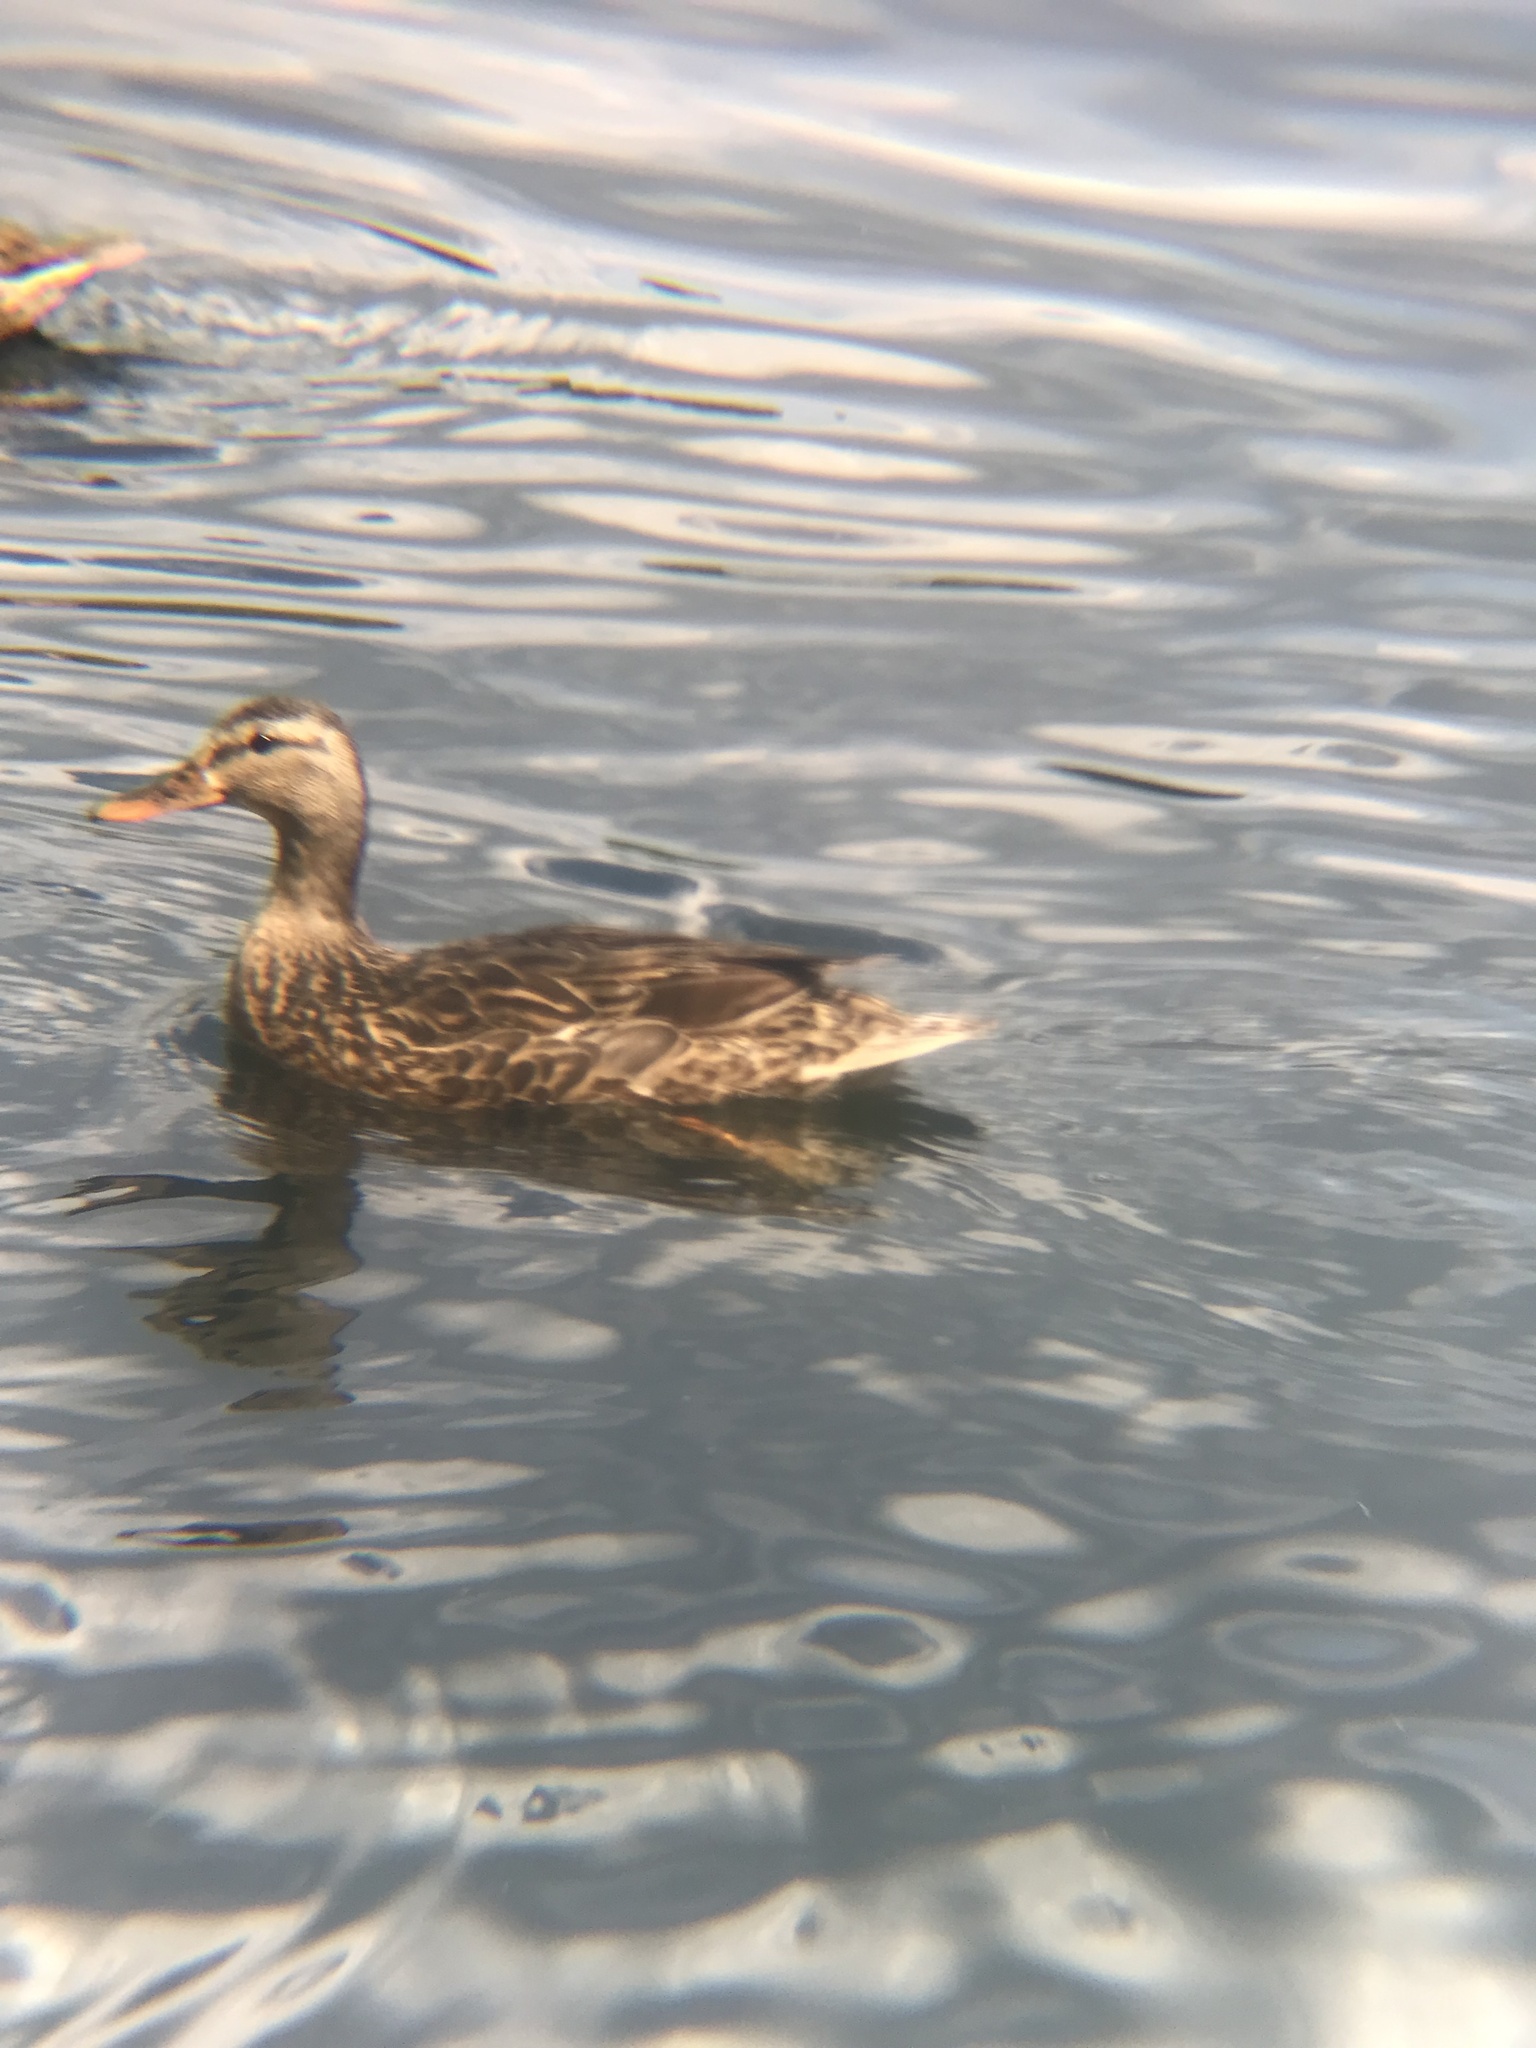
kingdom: Animalia
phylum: Chordata
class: Aves
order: Anseriformes
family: Anatidae
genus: Anas
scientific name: Anas platyrhynchos
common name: Mallard
